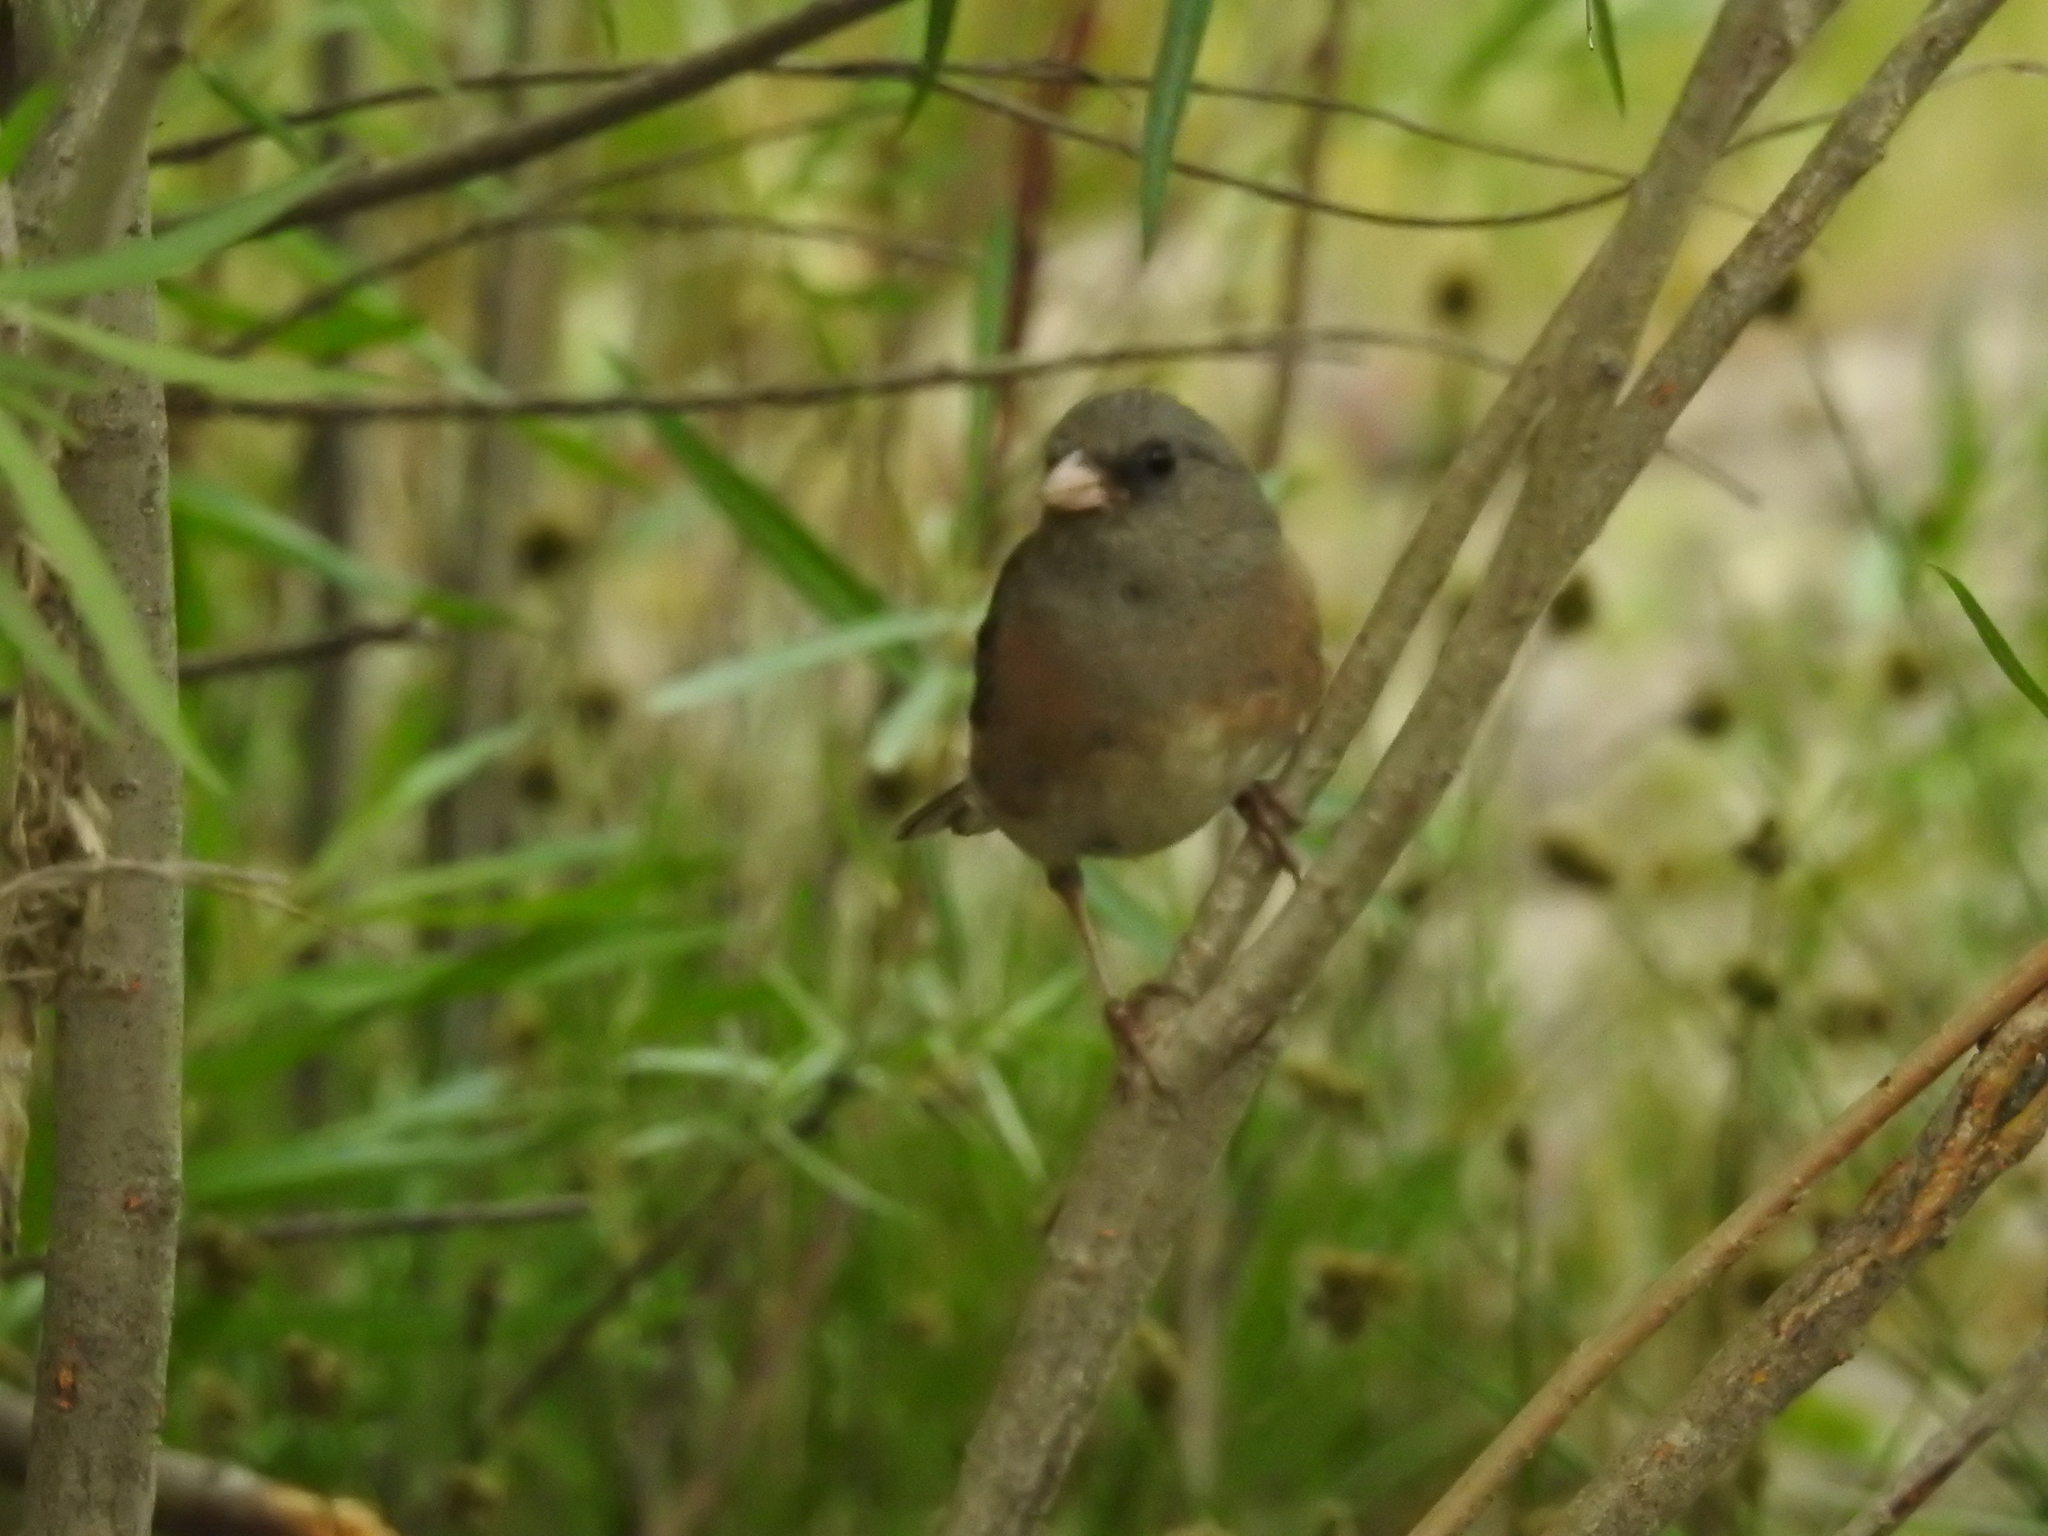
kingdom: Animalia
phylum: Chordata
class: Aves
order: Passeriformes
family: Passerellidae
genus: Junco
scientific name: Junco hyemalis
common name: Dark-eyed junco
